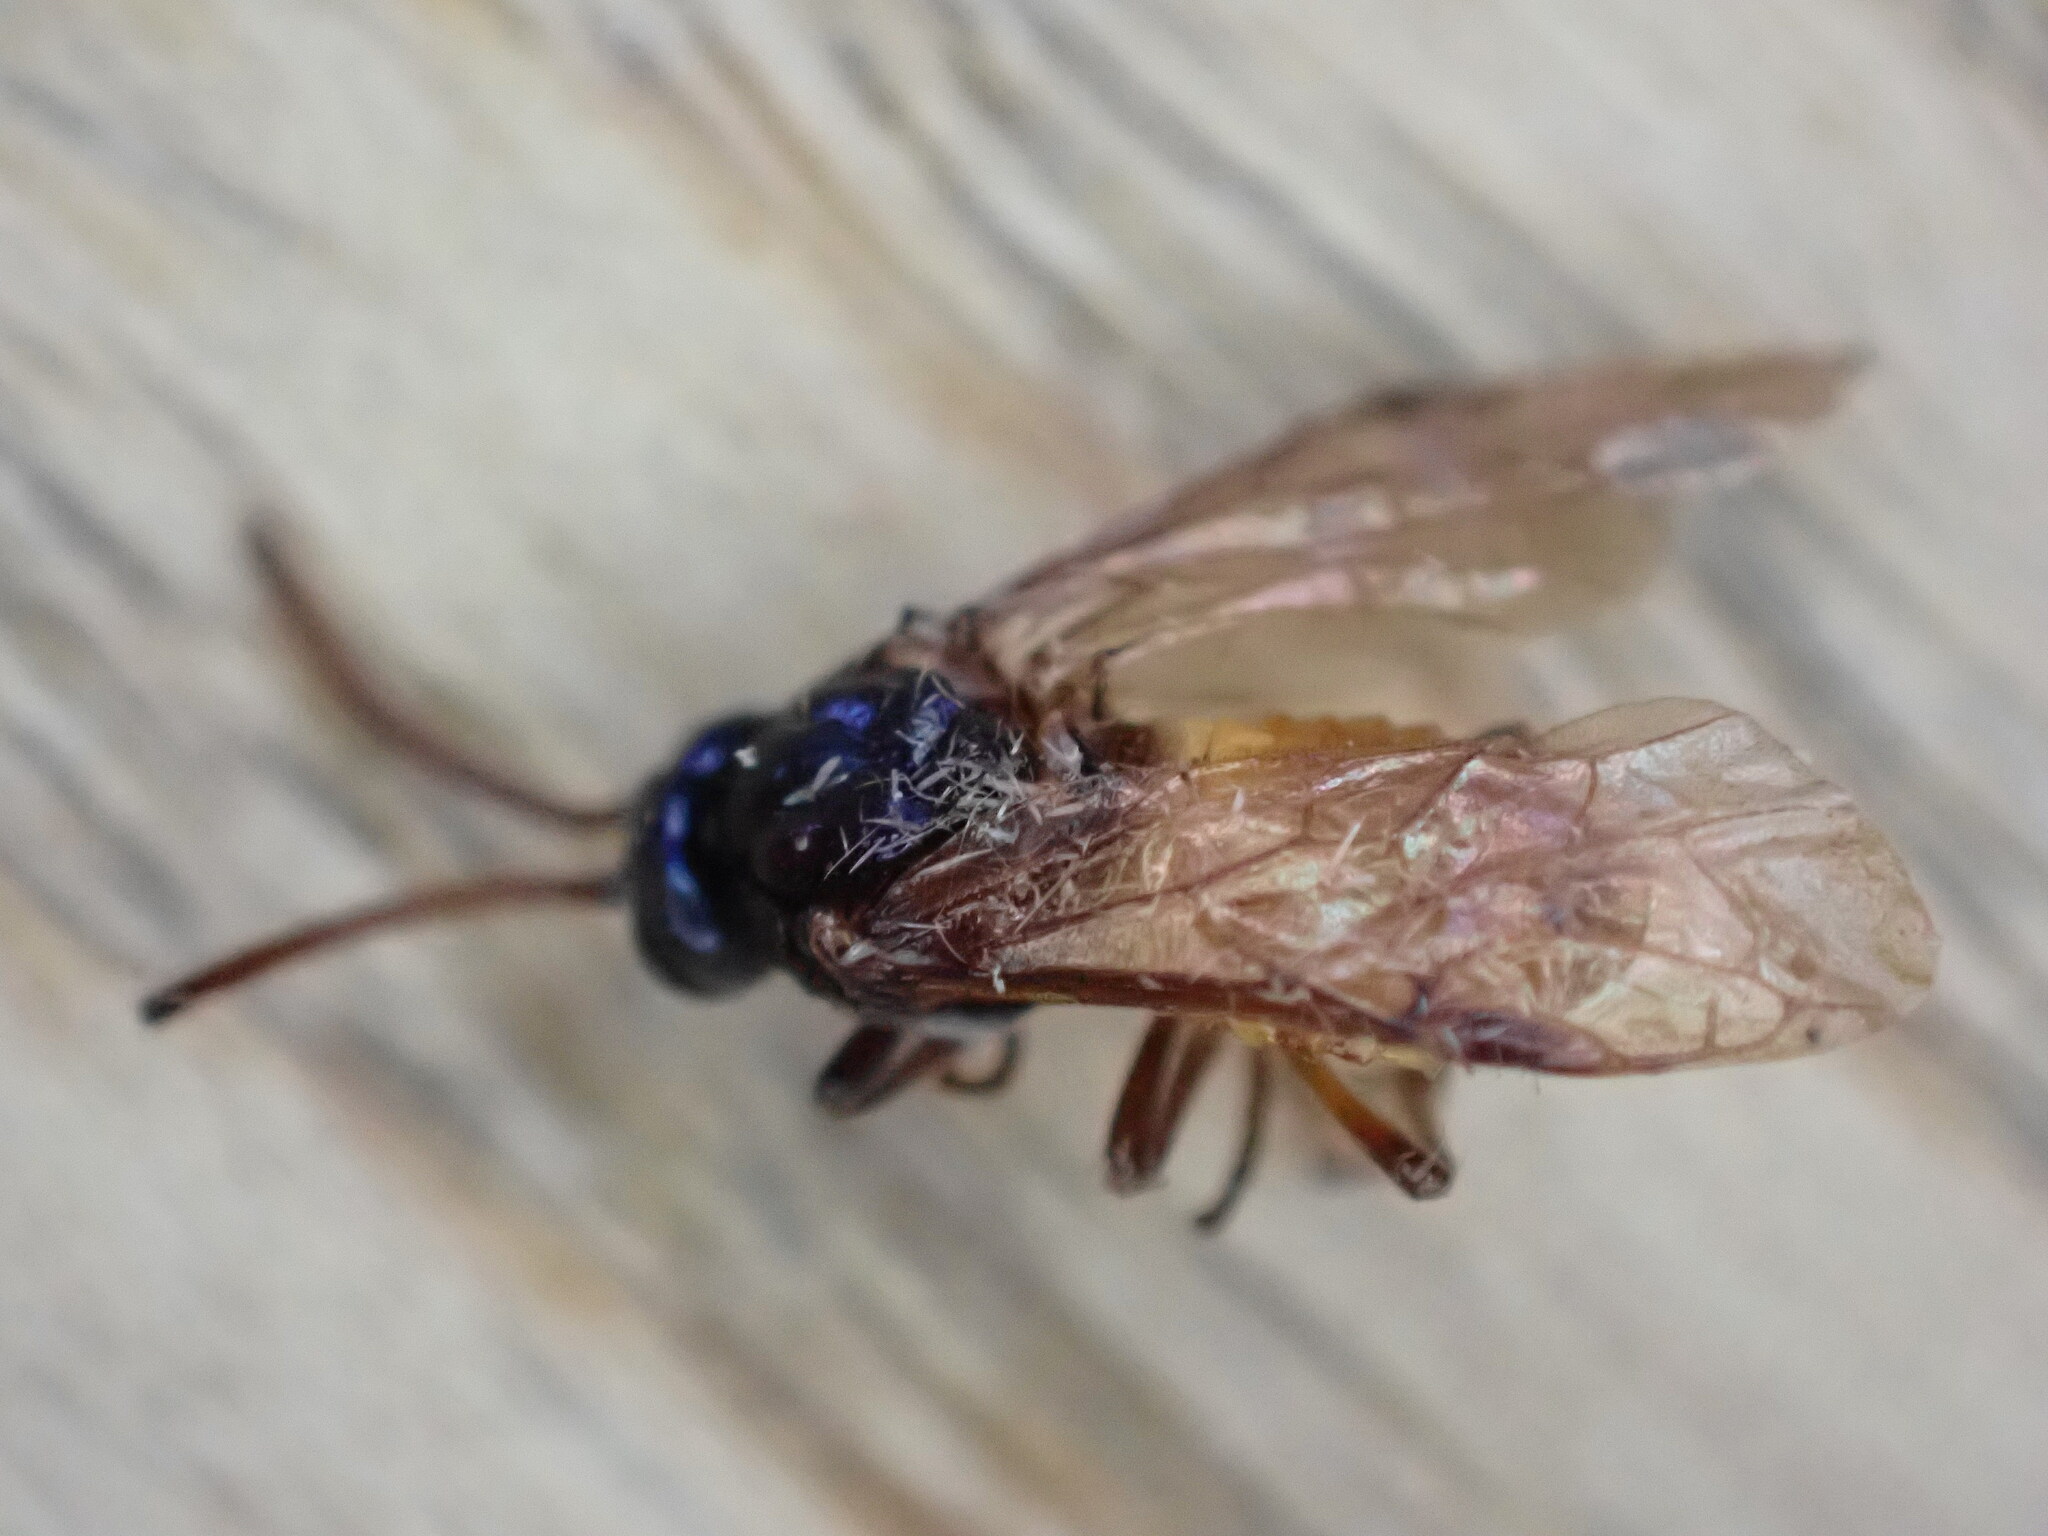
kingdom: Animalia
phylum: Arthropoda
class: Insecta
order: Hymenoptera
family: Argidae
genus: Arge
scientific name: Arge pagana
